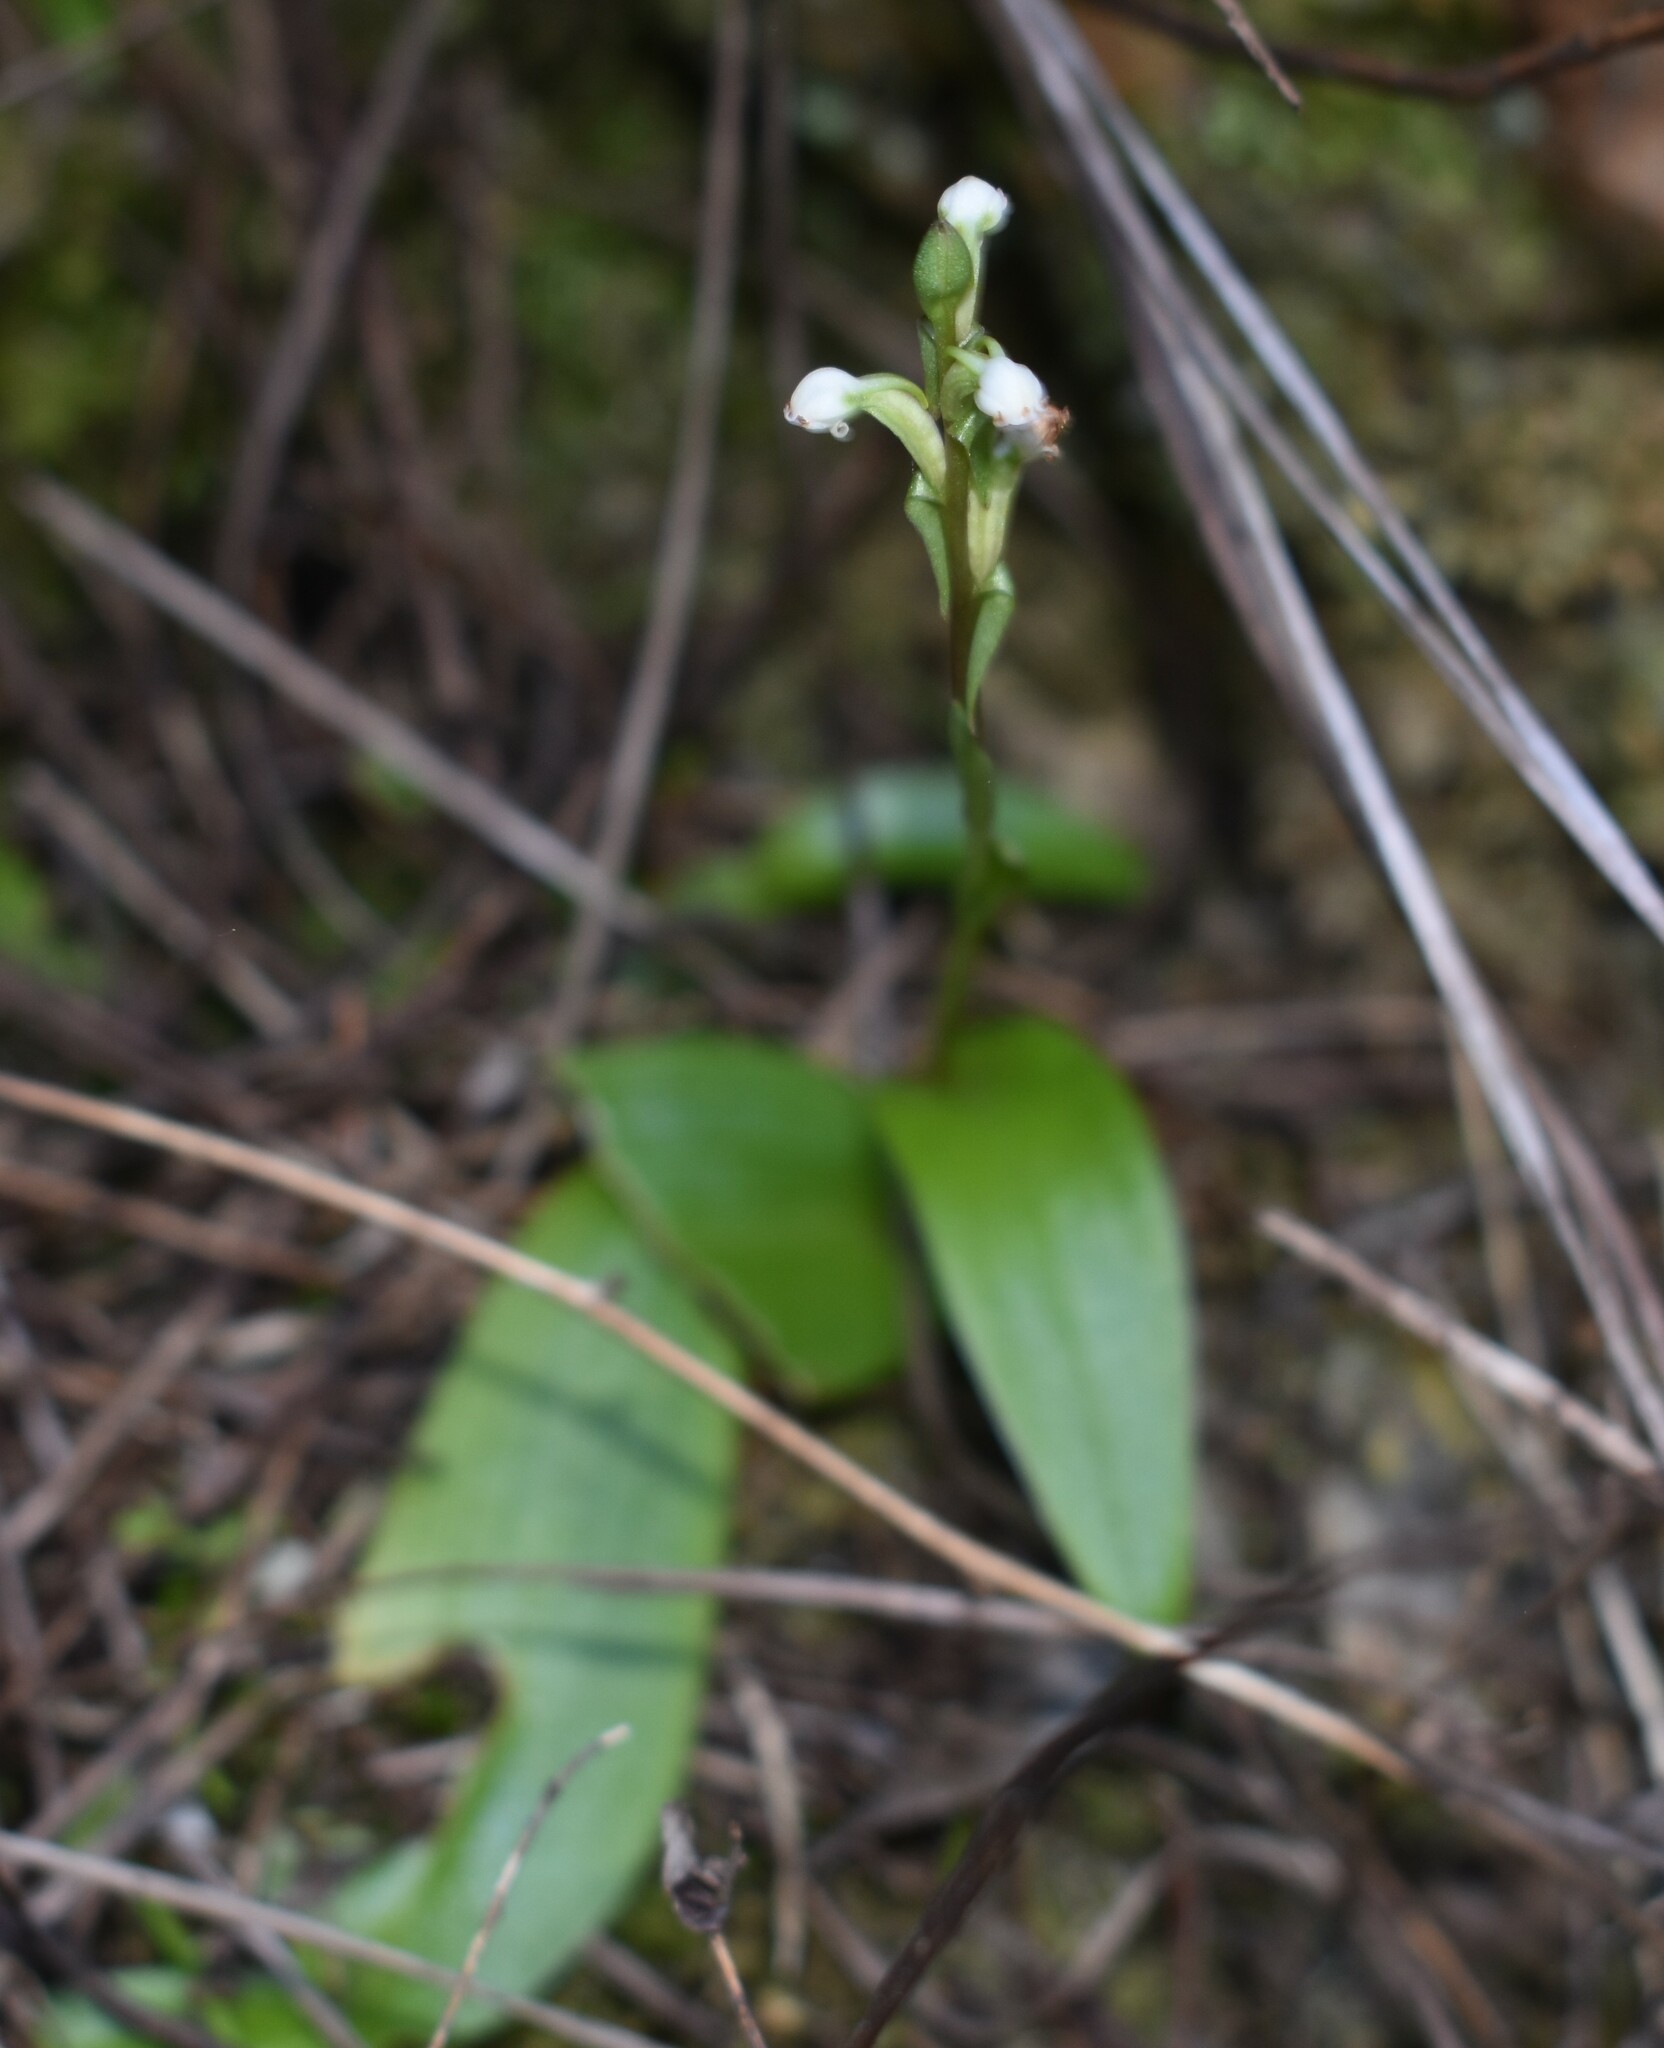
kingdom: Plantae
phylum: Tracheophyta
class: Liliopsida
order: Asparagales
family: Orchidaceae
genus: Satyrium
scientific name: Satyrium rupestre
